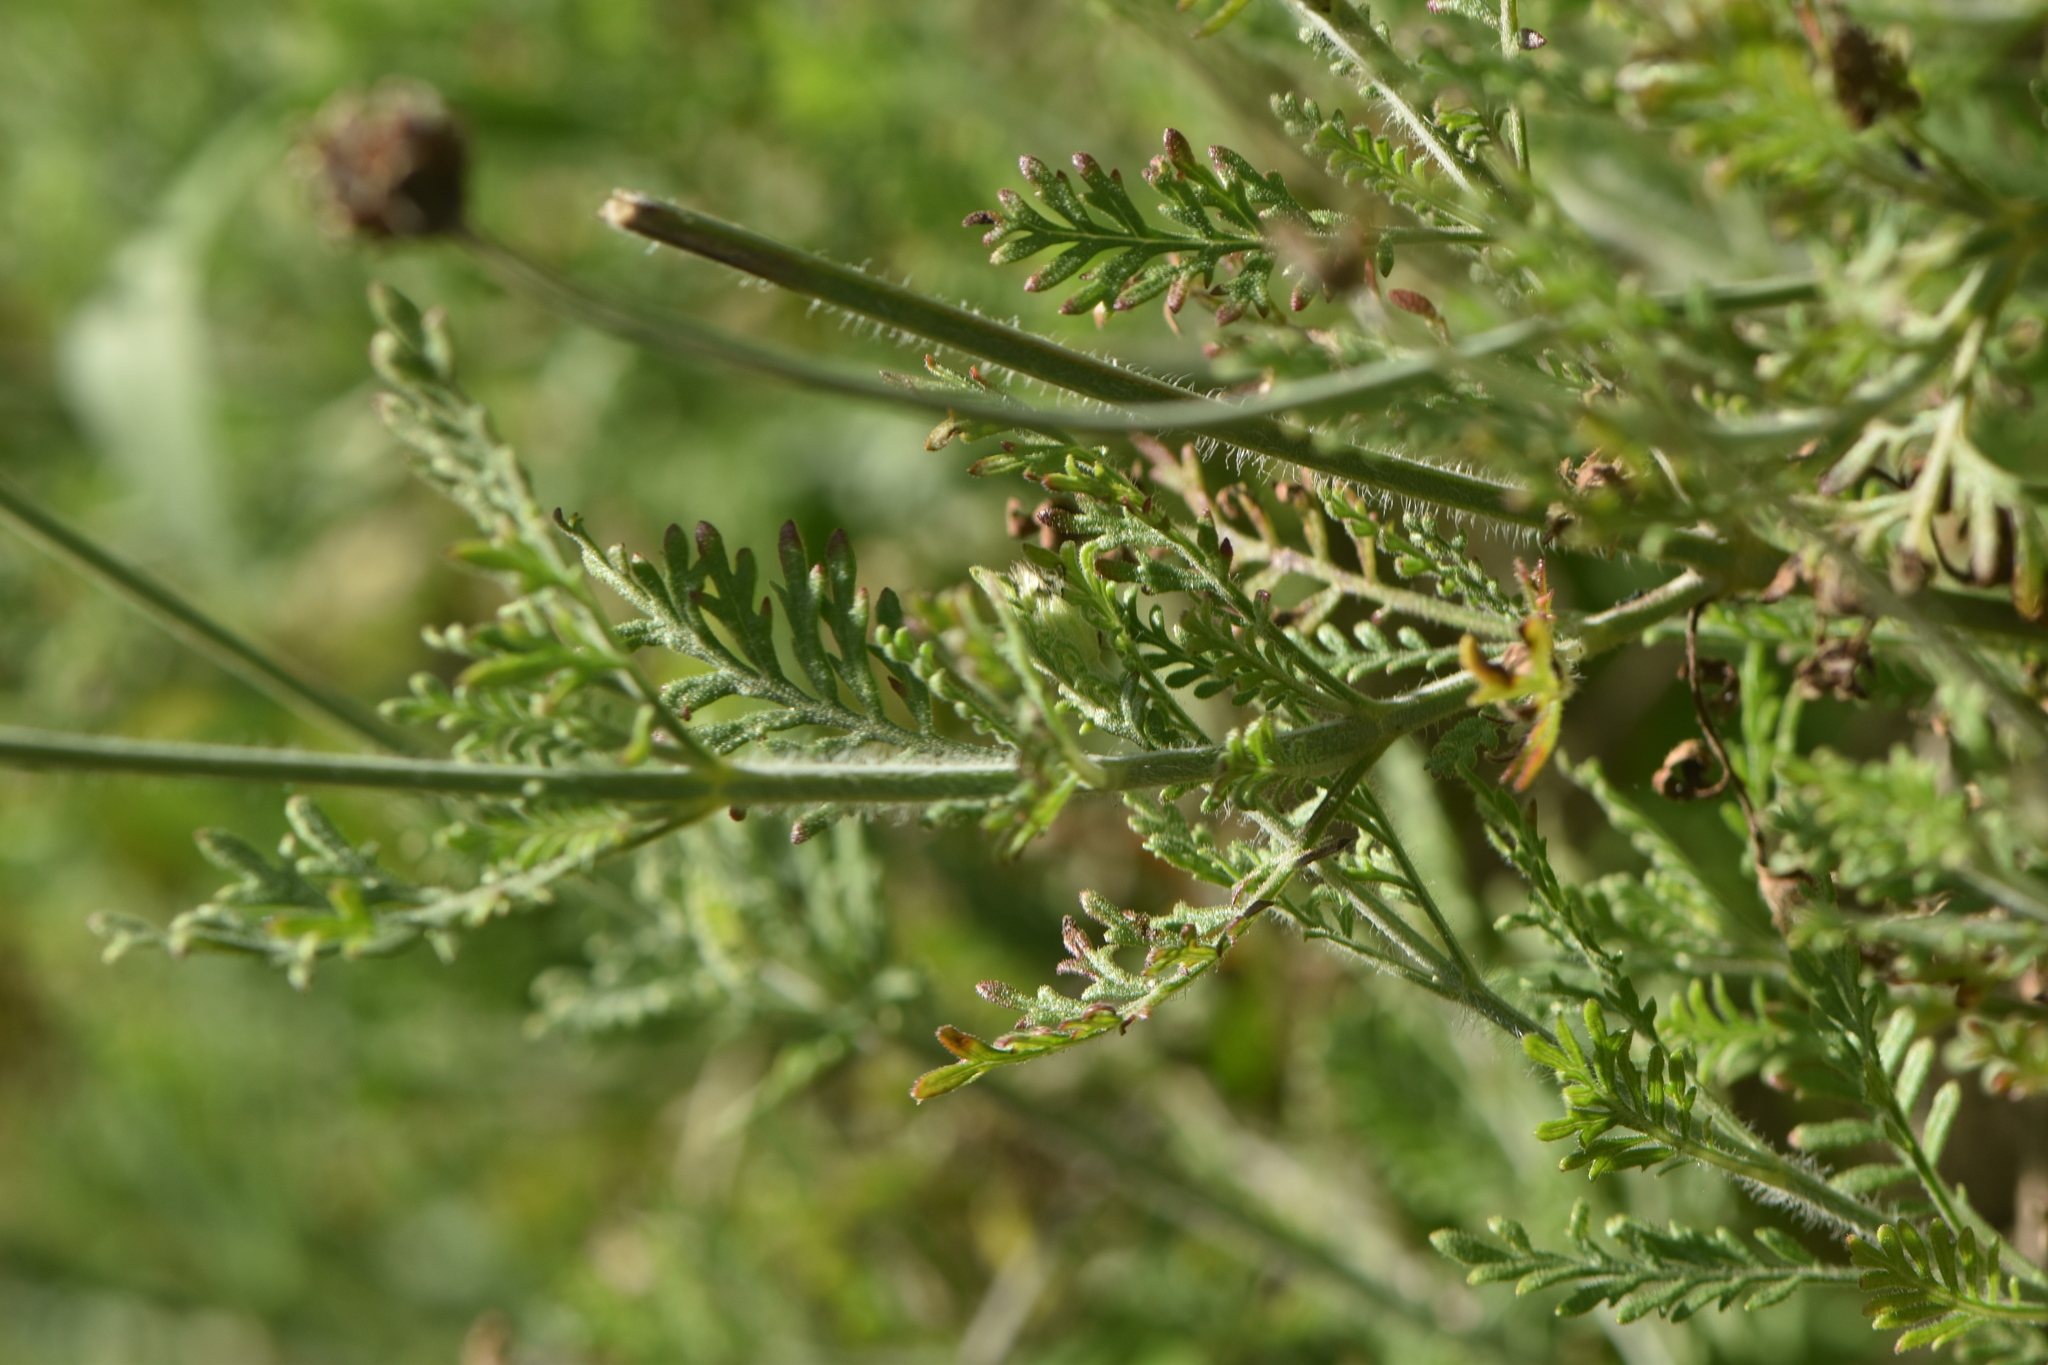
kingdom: Plantae
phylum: Tracheophyta
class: Magnoliopsida
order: Lamiales
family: Lamiaceae
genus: Lavandula
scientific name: Lavandula multifida
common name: Fern-leaf lavender
